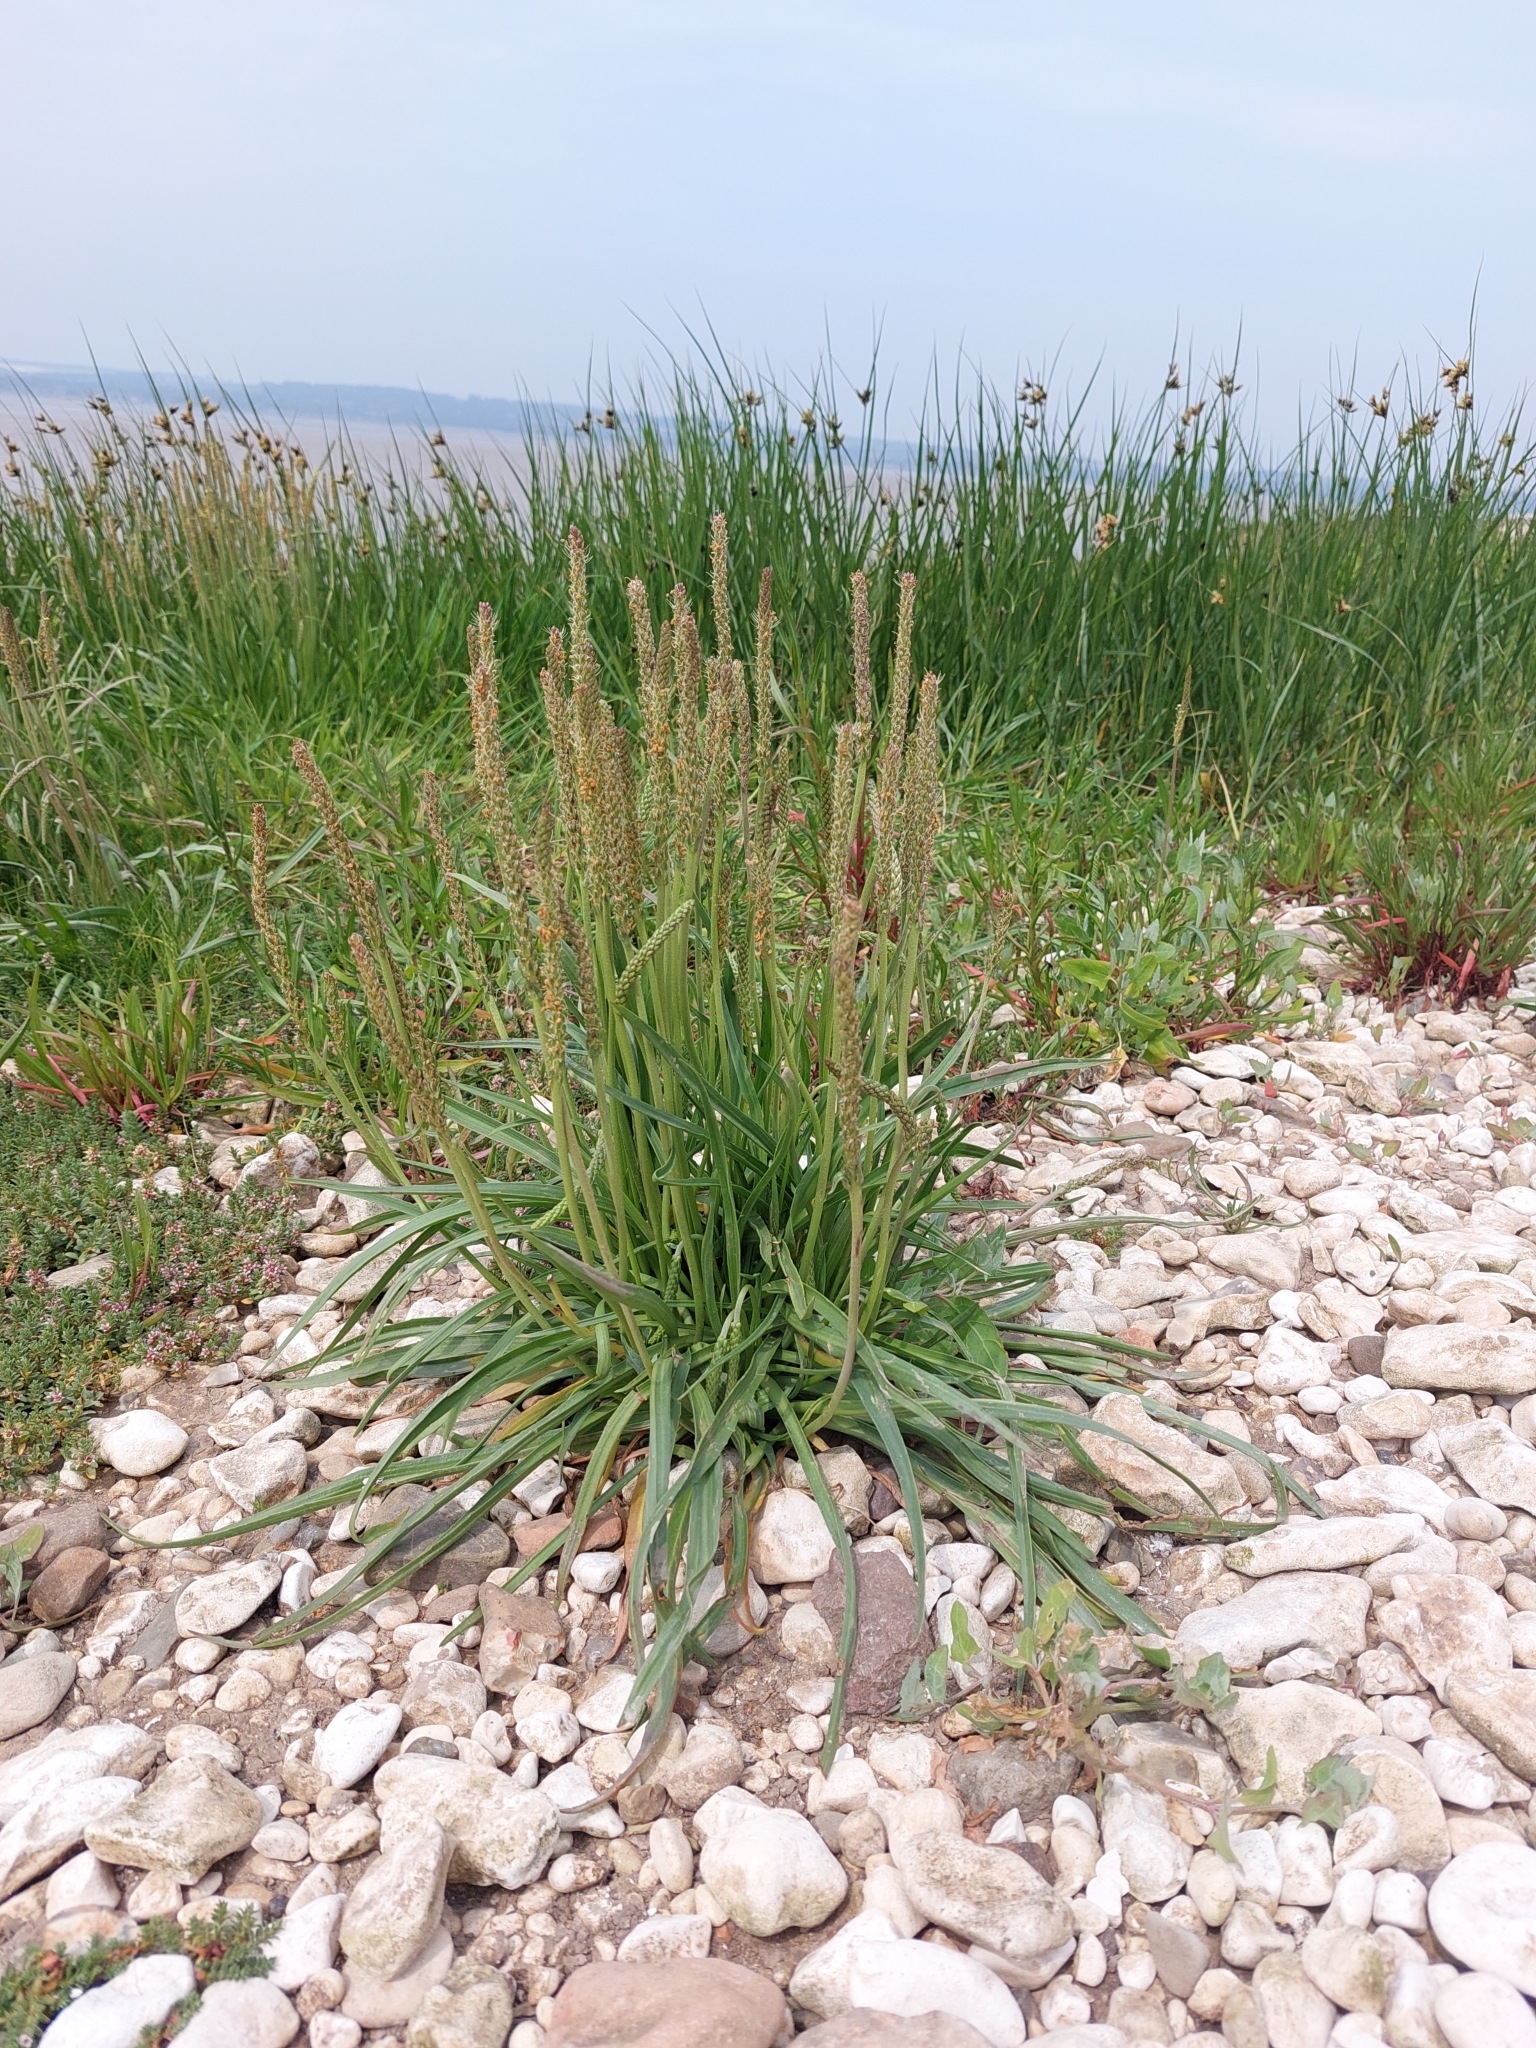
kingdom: Plantae
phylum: Tracheophyta
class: Magnoliopsida
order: Lamiales
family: Plantaginaceae
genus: Plantago
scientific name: Plantago maritima
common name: Sea plantain
